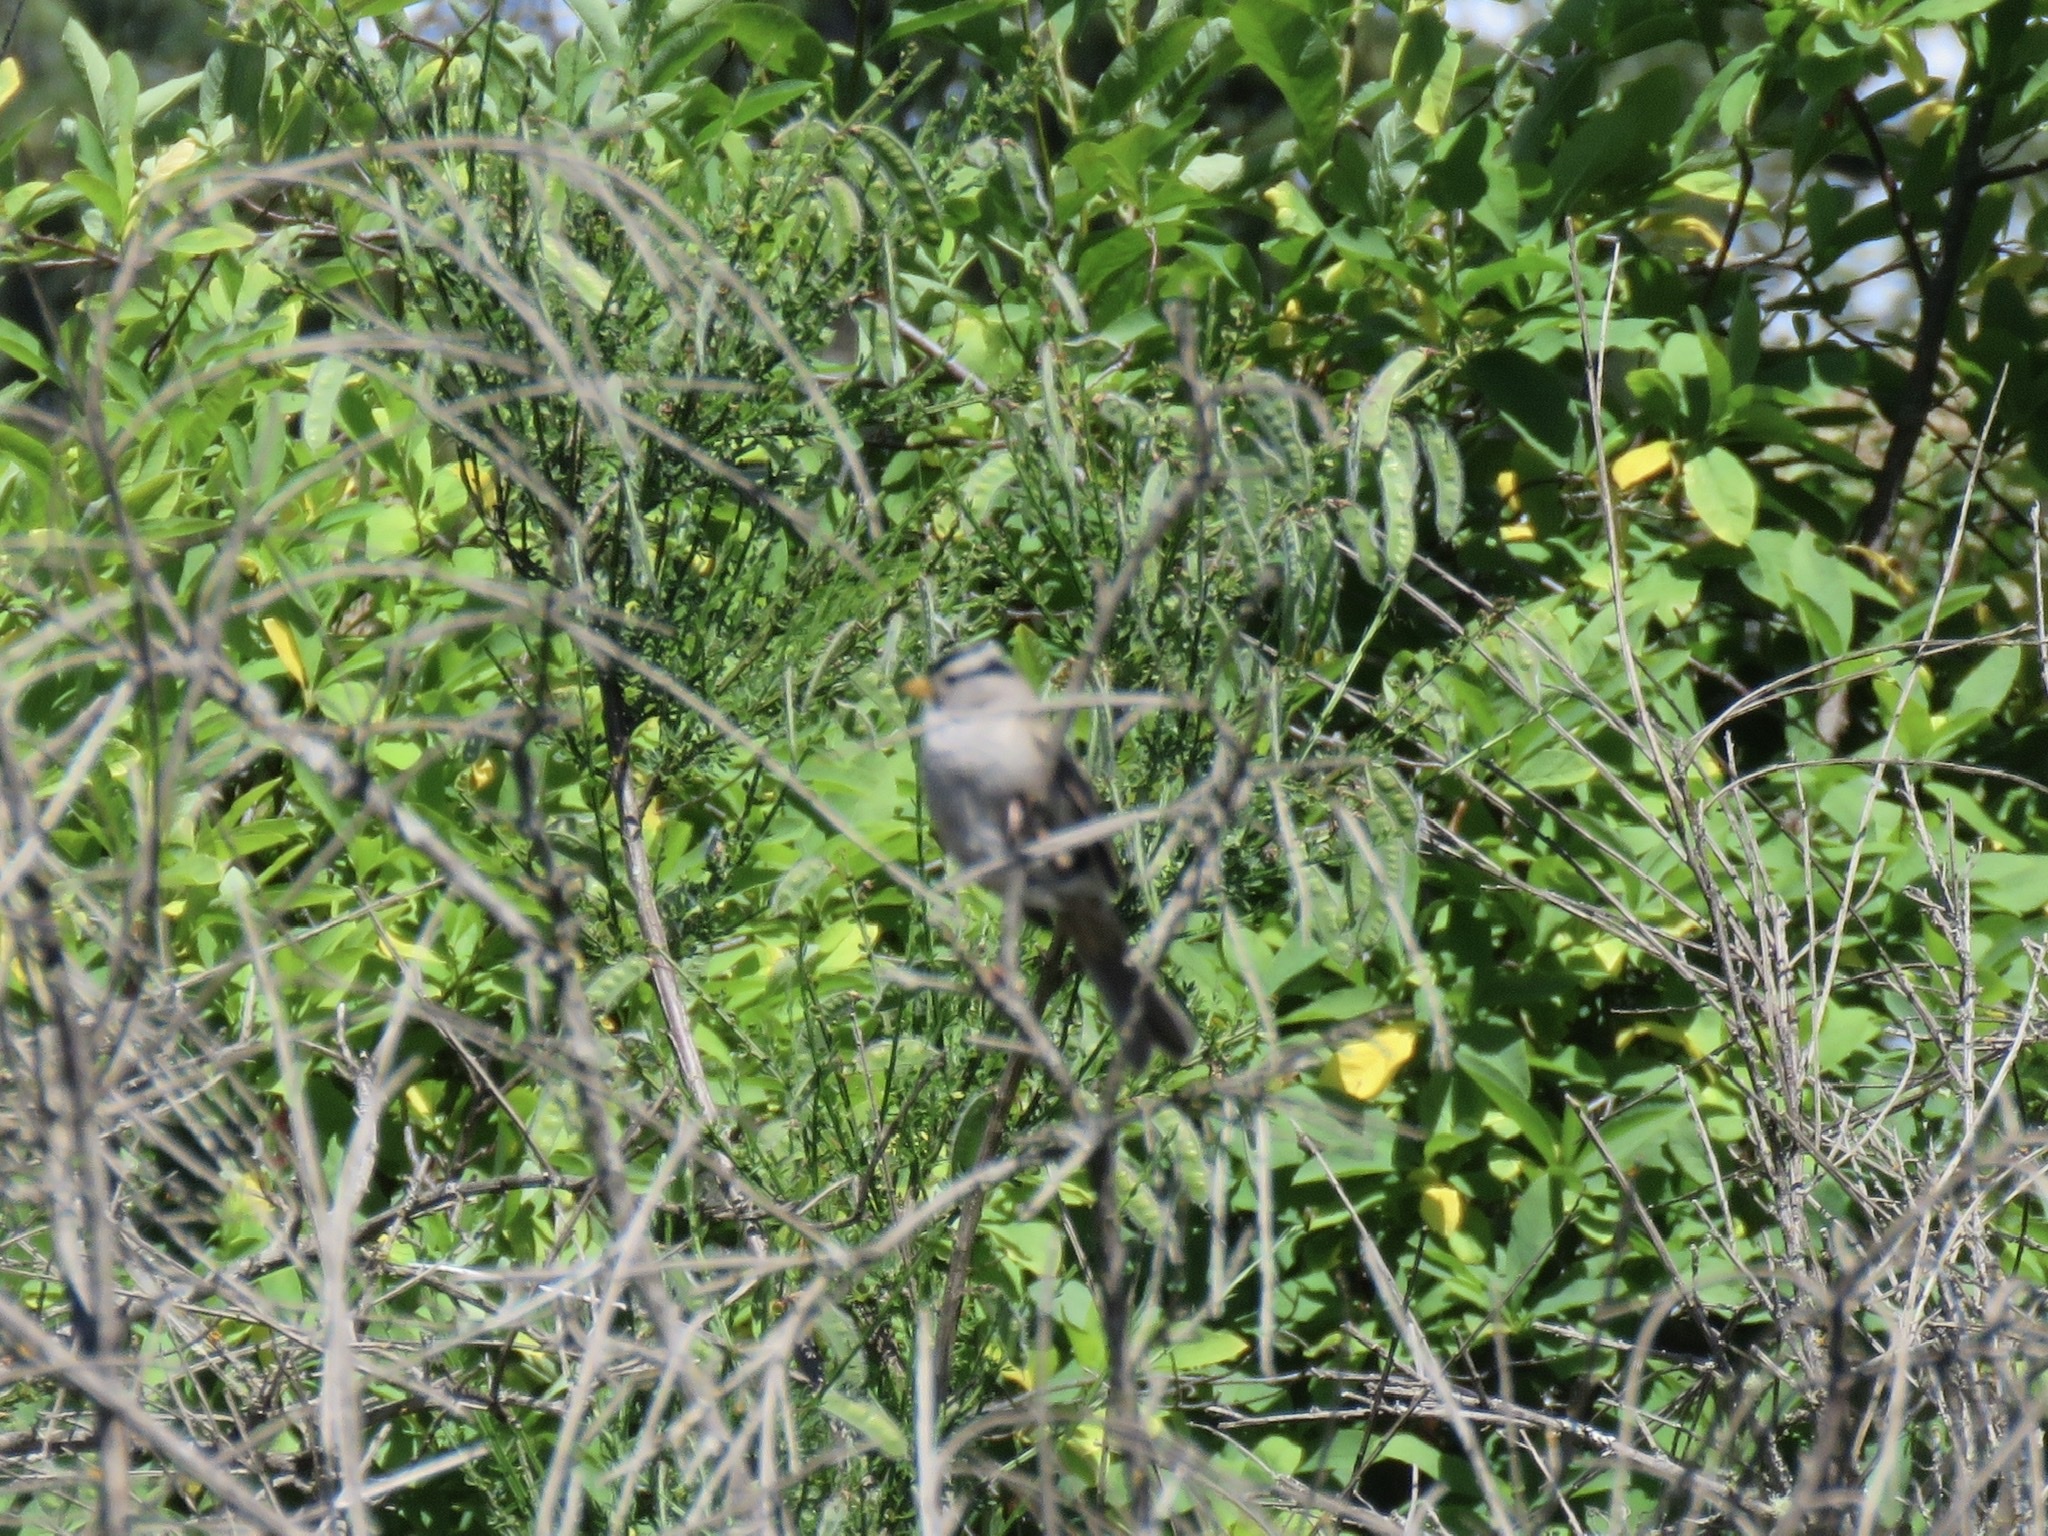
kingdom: Animalia
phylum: Chordata
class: Aves
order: Passeriformes
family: Passerellidae
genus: Zonotrichia
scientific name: Zonotrichia leucophrys
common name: White-crowned sparrow
